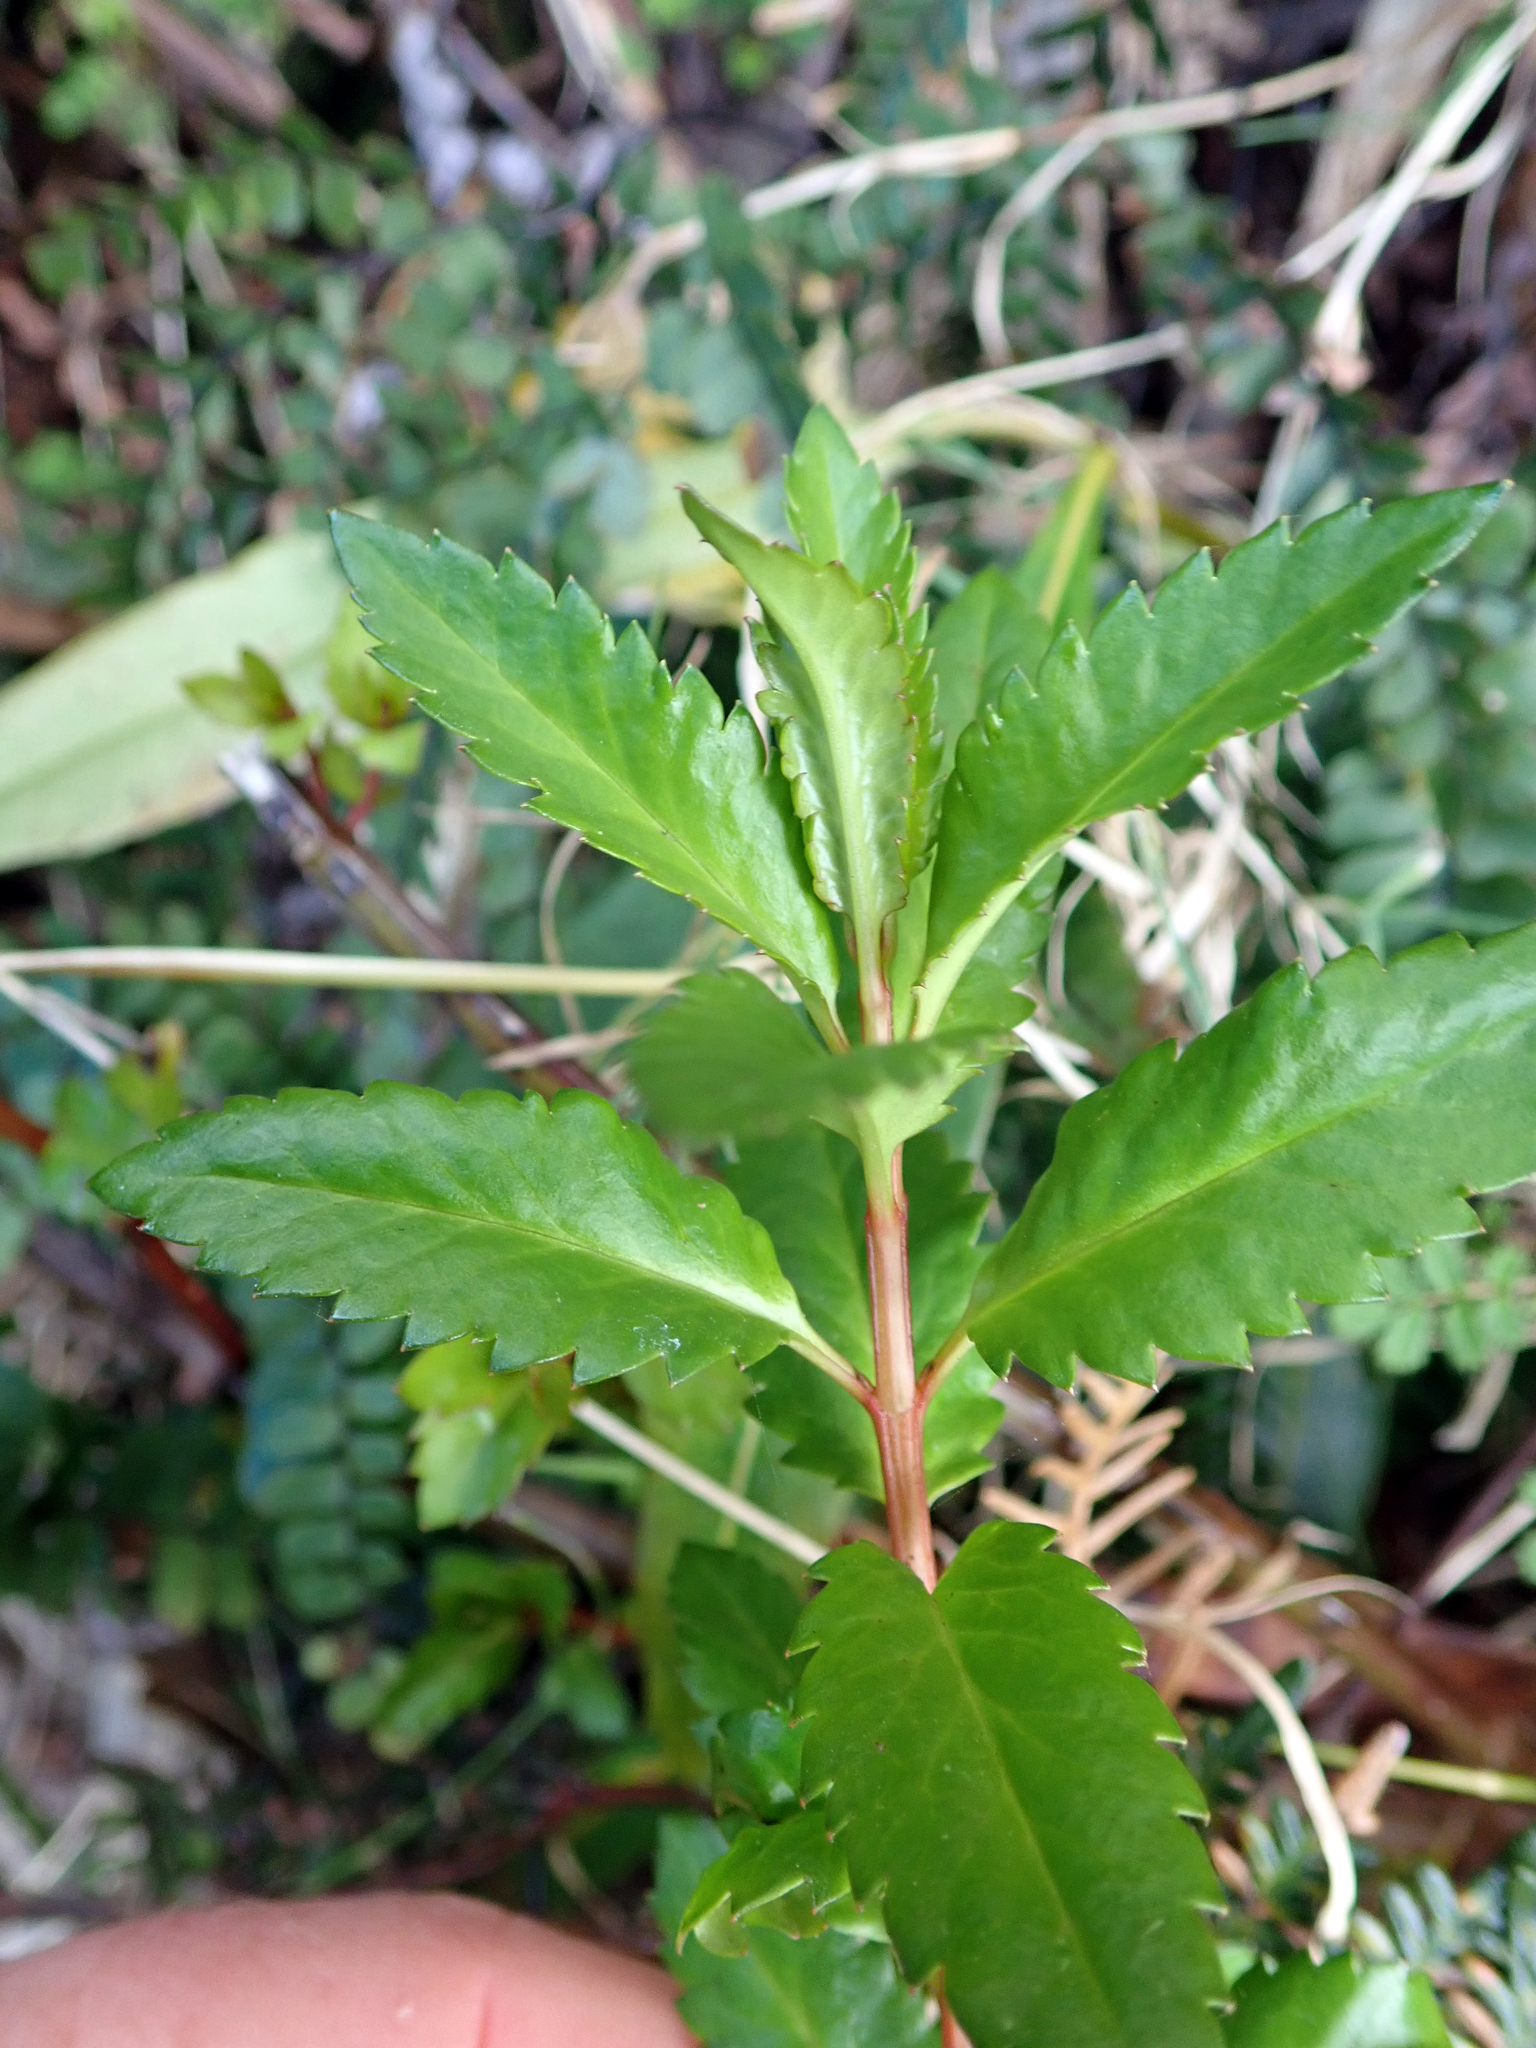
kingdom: Plantae
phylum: Tracheophyta
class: Magnoliopsida
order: Saxifragales
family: Haloragaceae
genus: Haloragis
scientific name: Haloragis erecta
